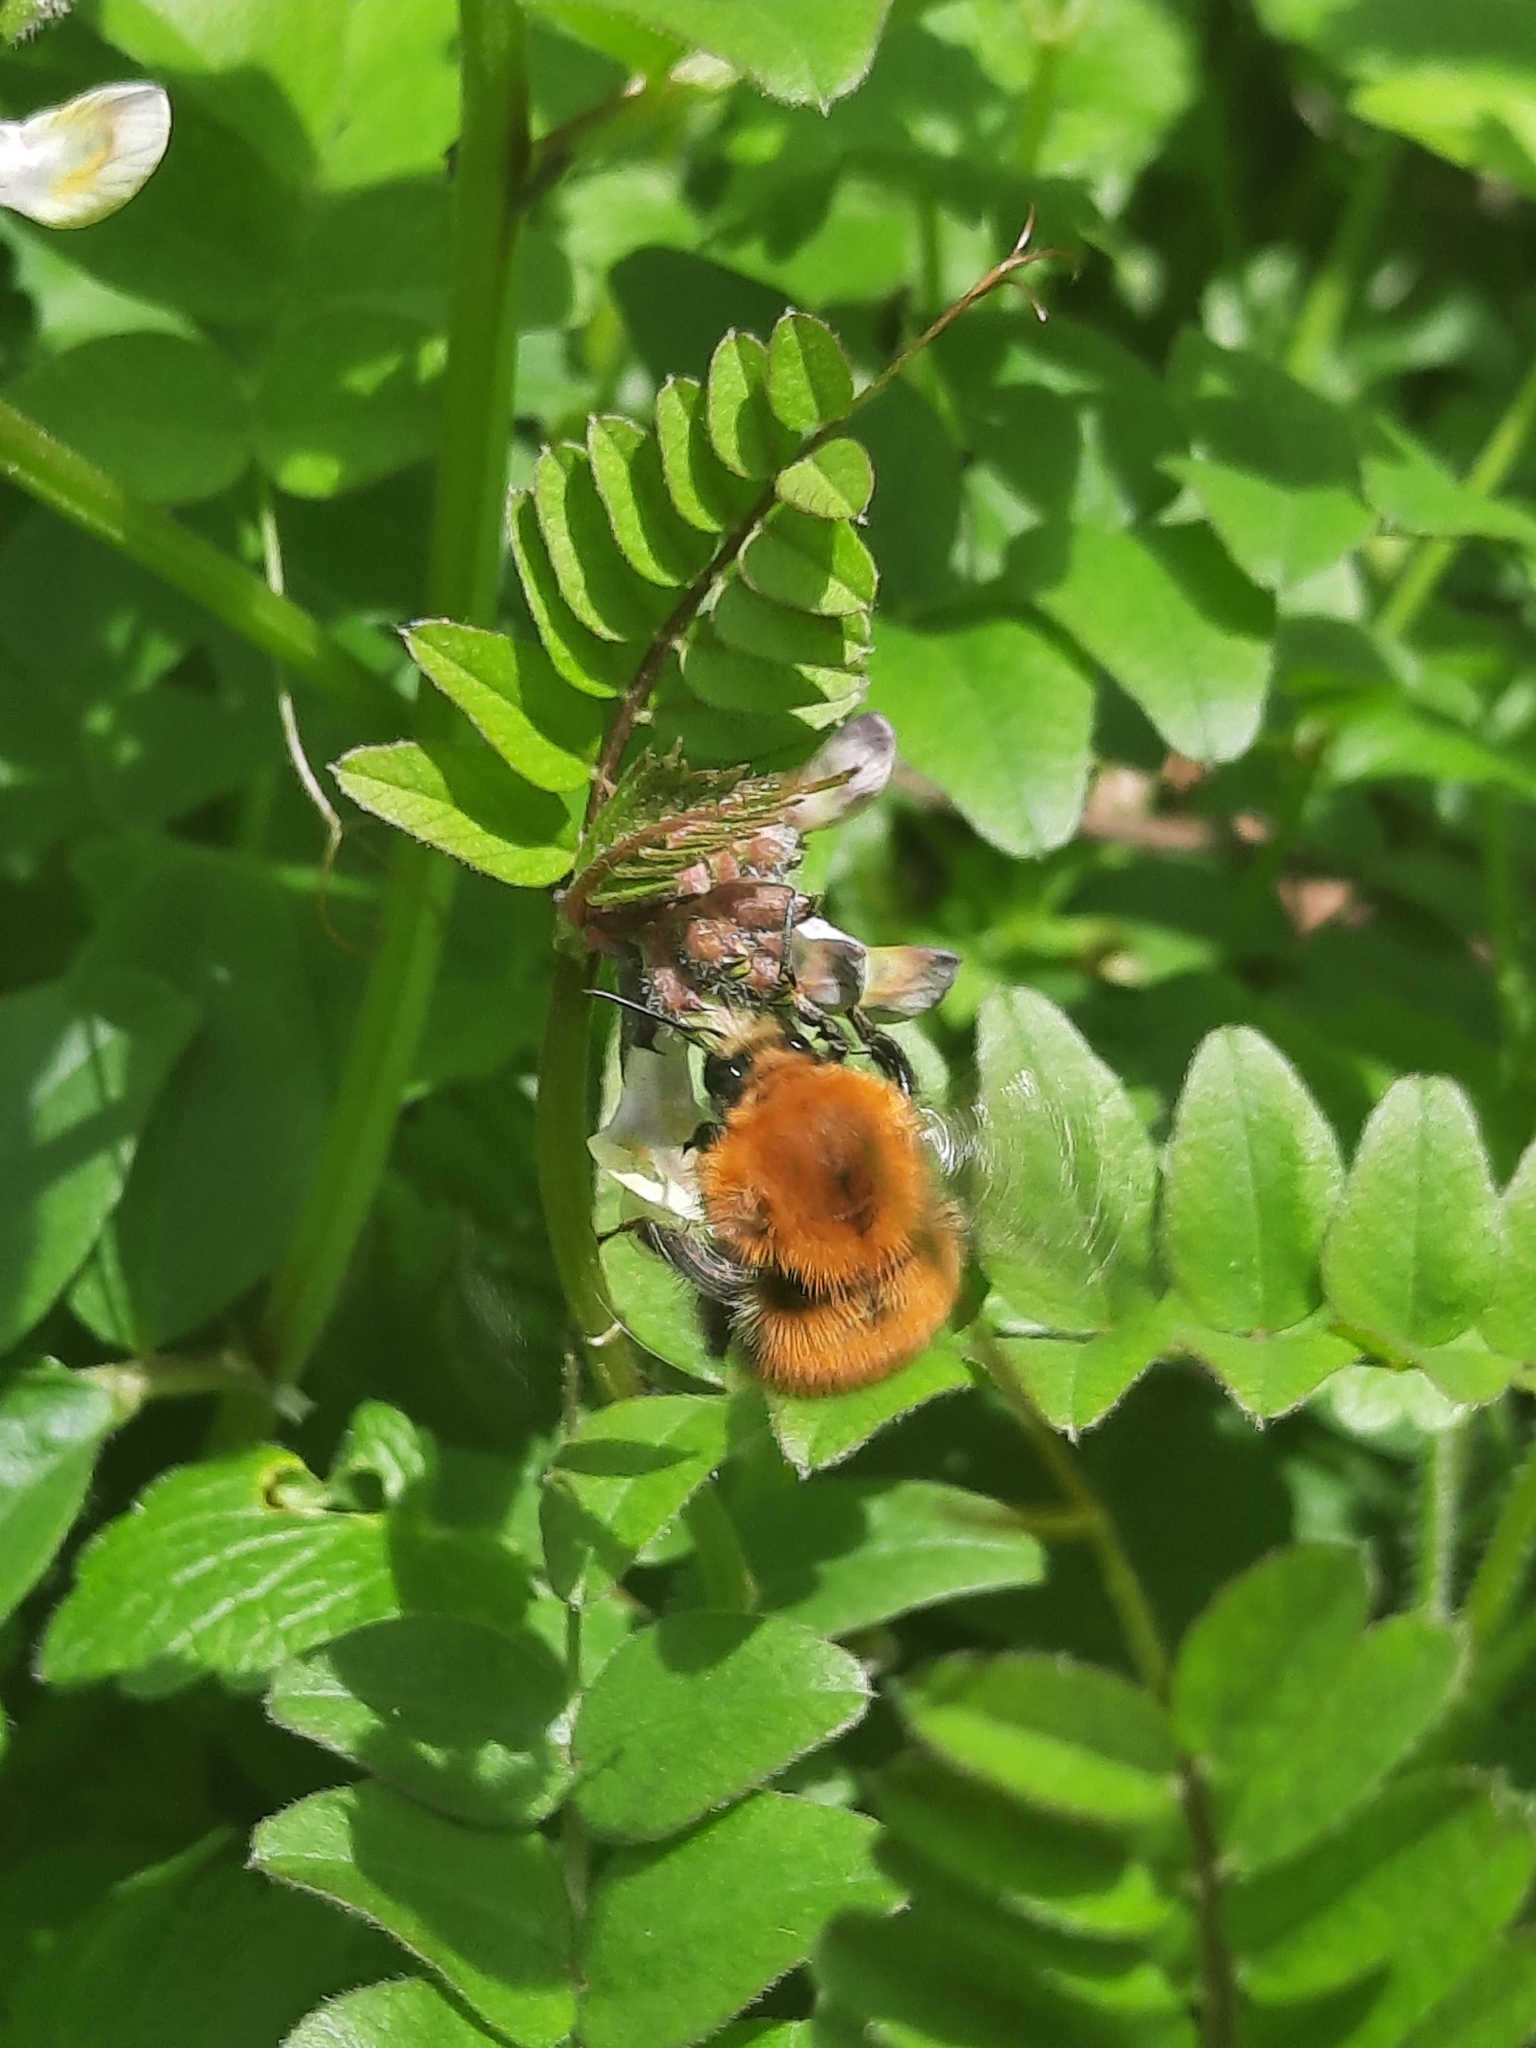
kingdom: Animalia
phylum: Arthropoda
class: Insecta
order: Hymenoptera
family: Apidae
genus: Bombus
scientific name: Bombus pascuorum
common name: Common carder bee
